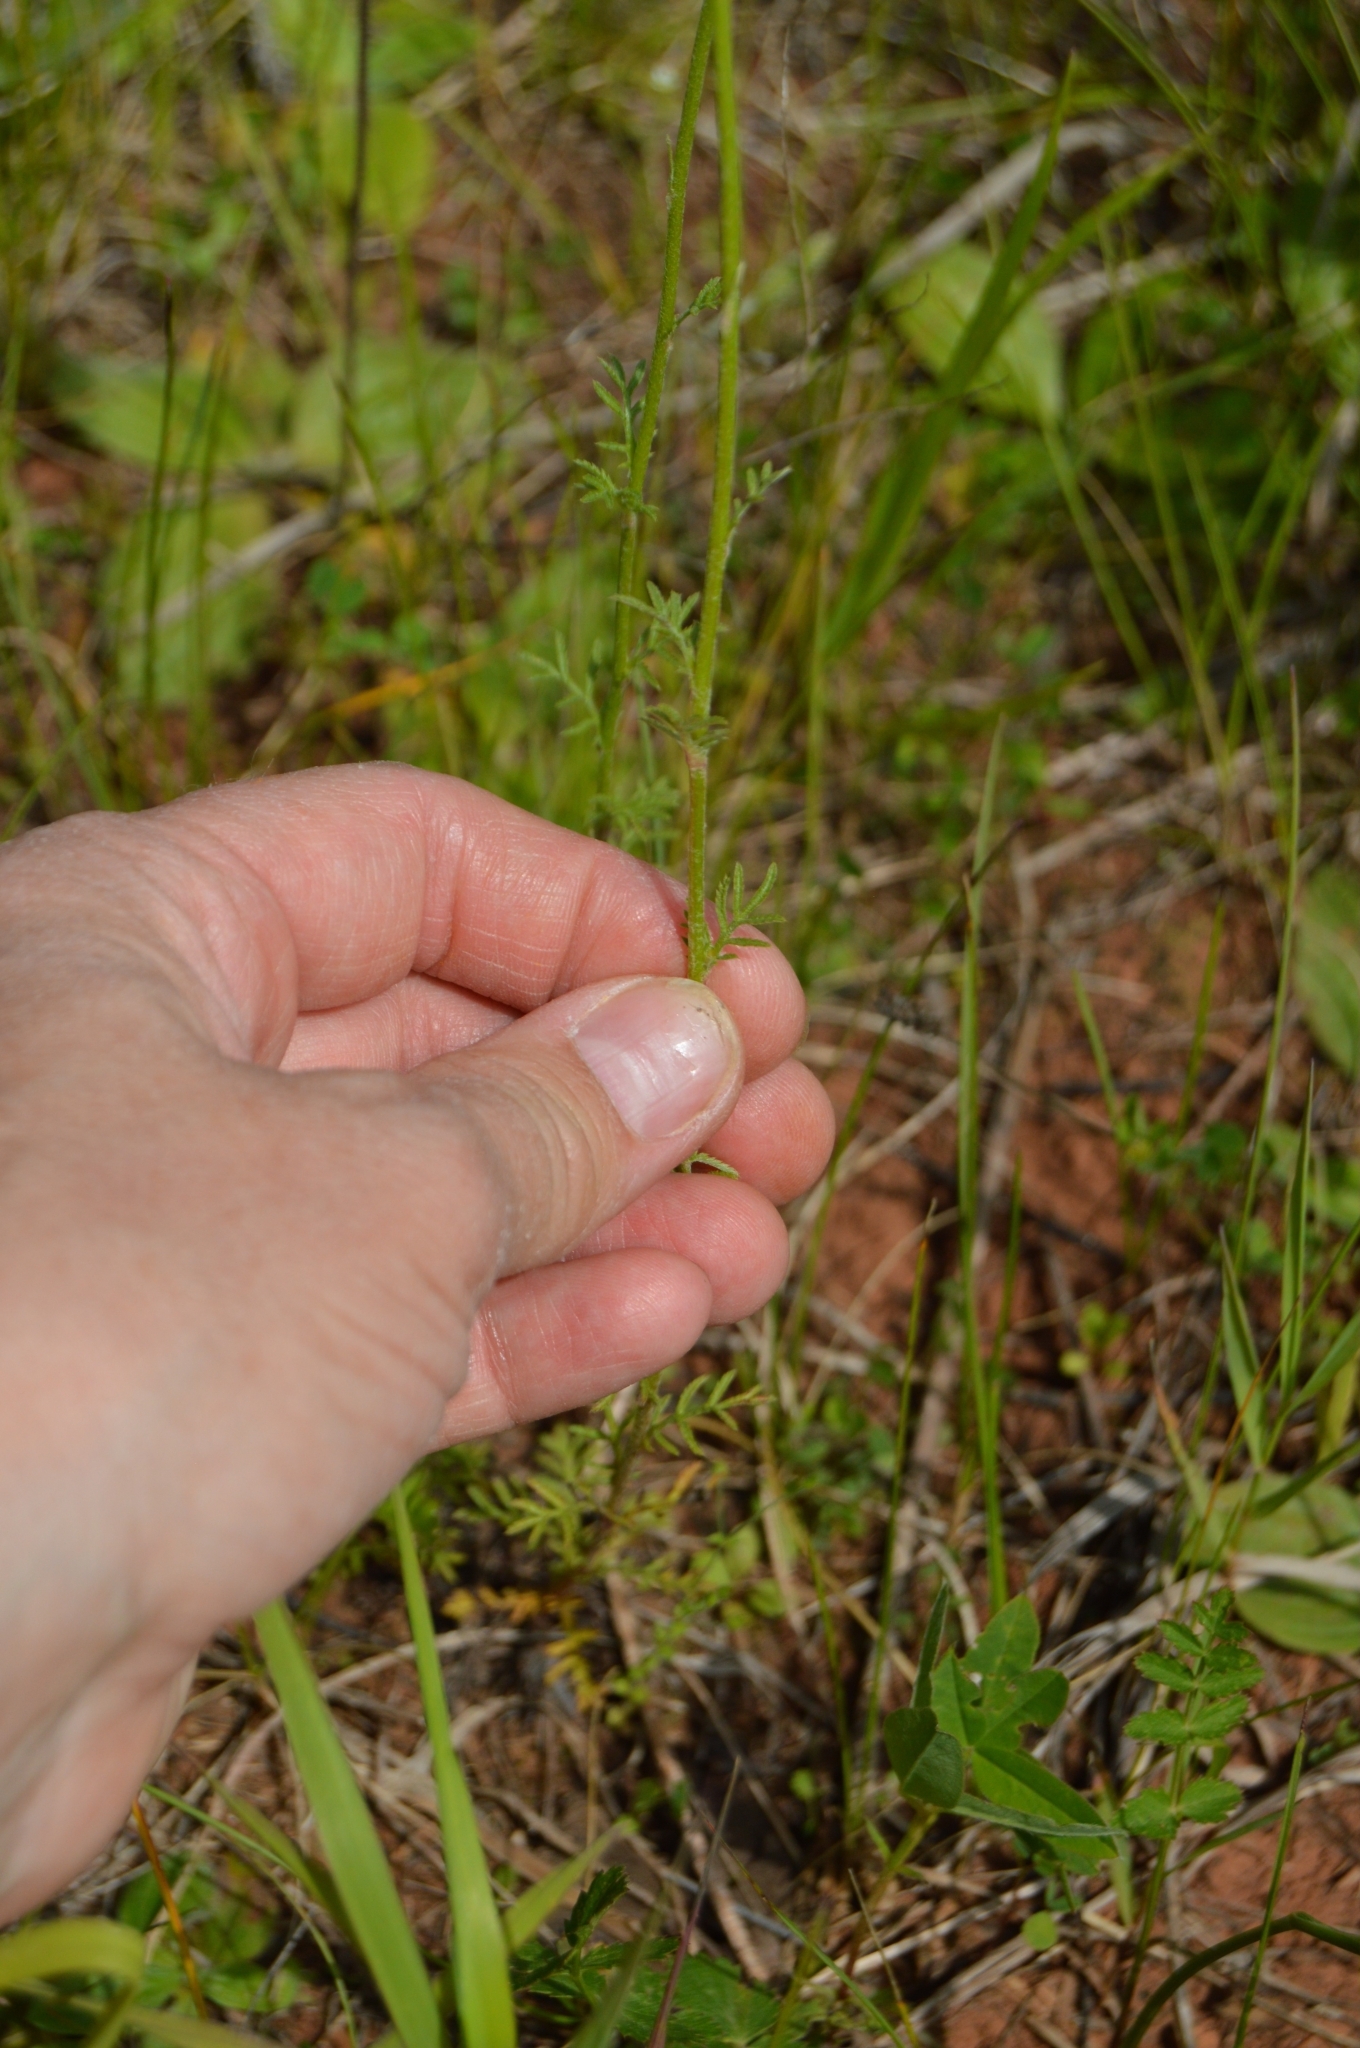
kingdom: Plantae
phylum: Tracheophyta
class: Magnoliopsida
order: Asterales
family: Asteraceae
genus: Cota
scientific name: Cota tinctoria
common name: Golden chamomile
